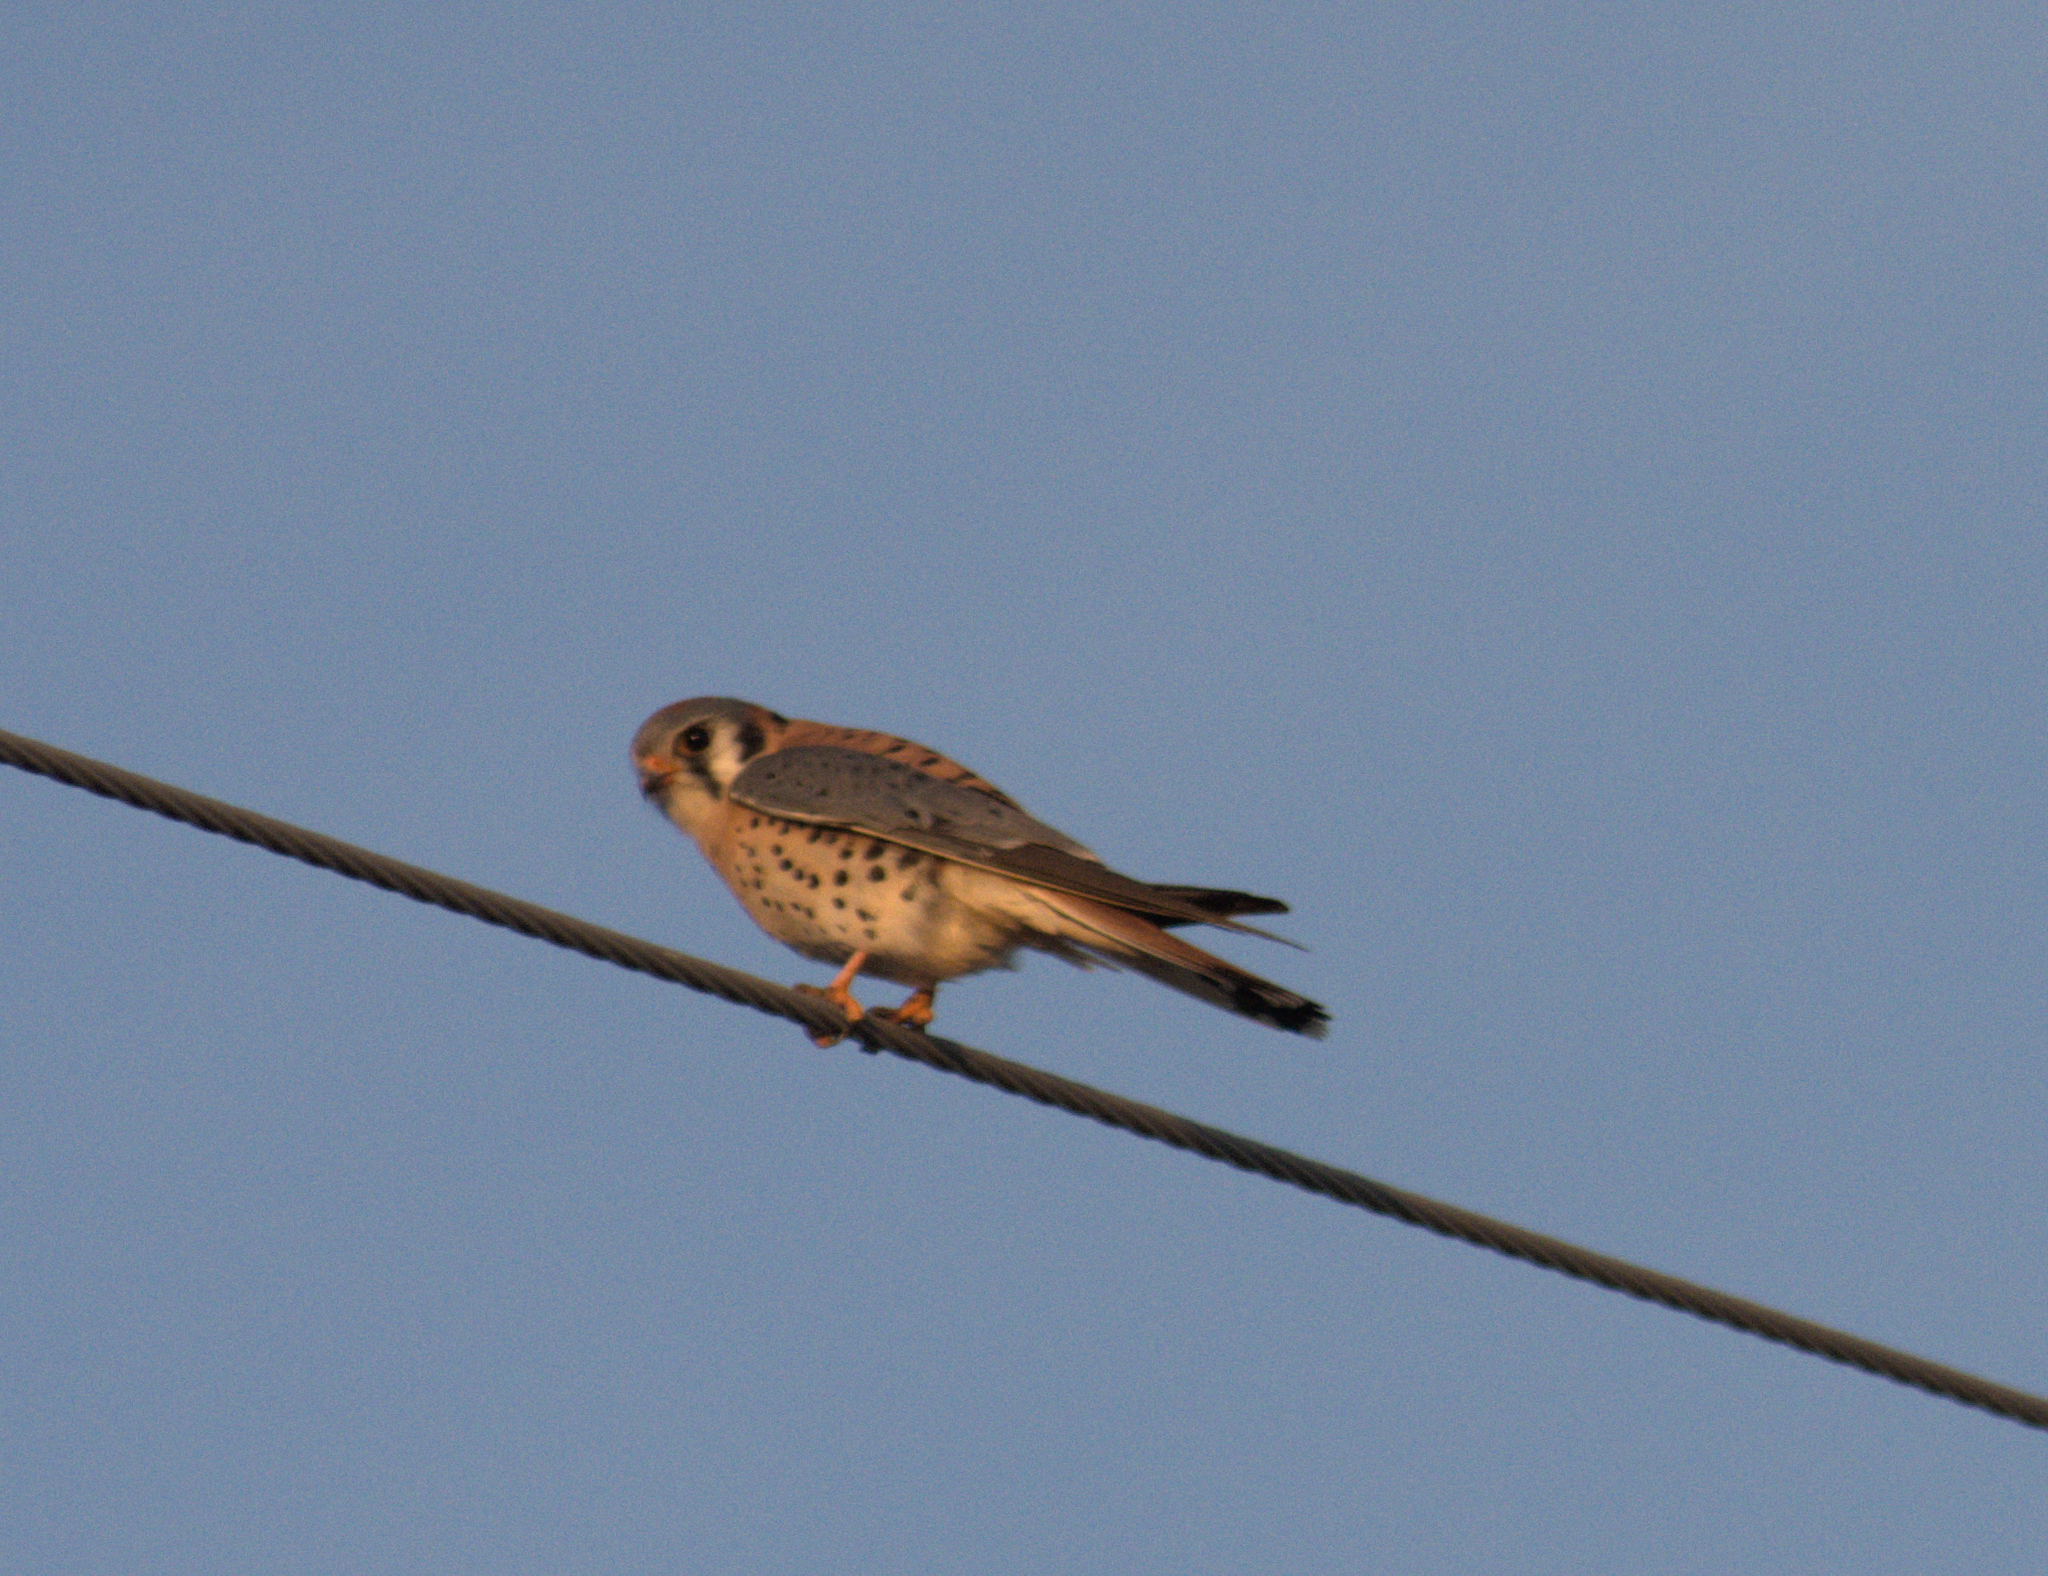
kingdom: Animalia
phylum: Chordata
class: Aves
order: Falconiformes
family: Falconidae
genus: Falco
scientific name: Falco sparverius
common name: American kestrel
